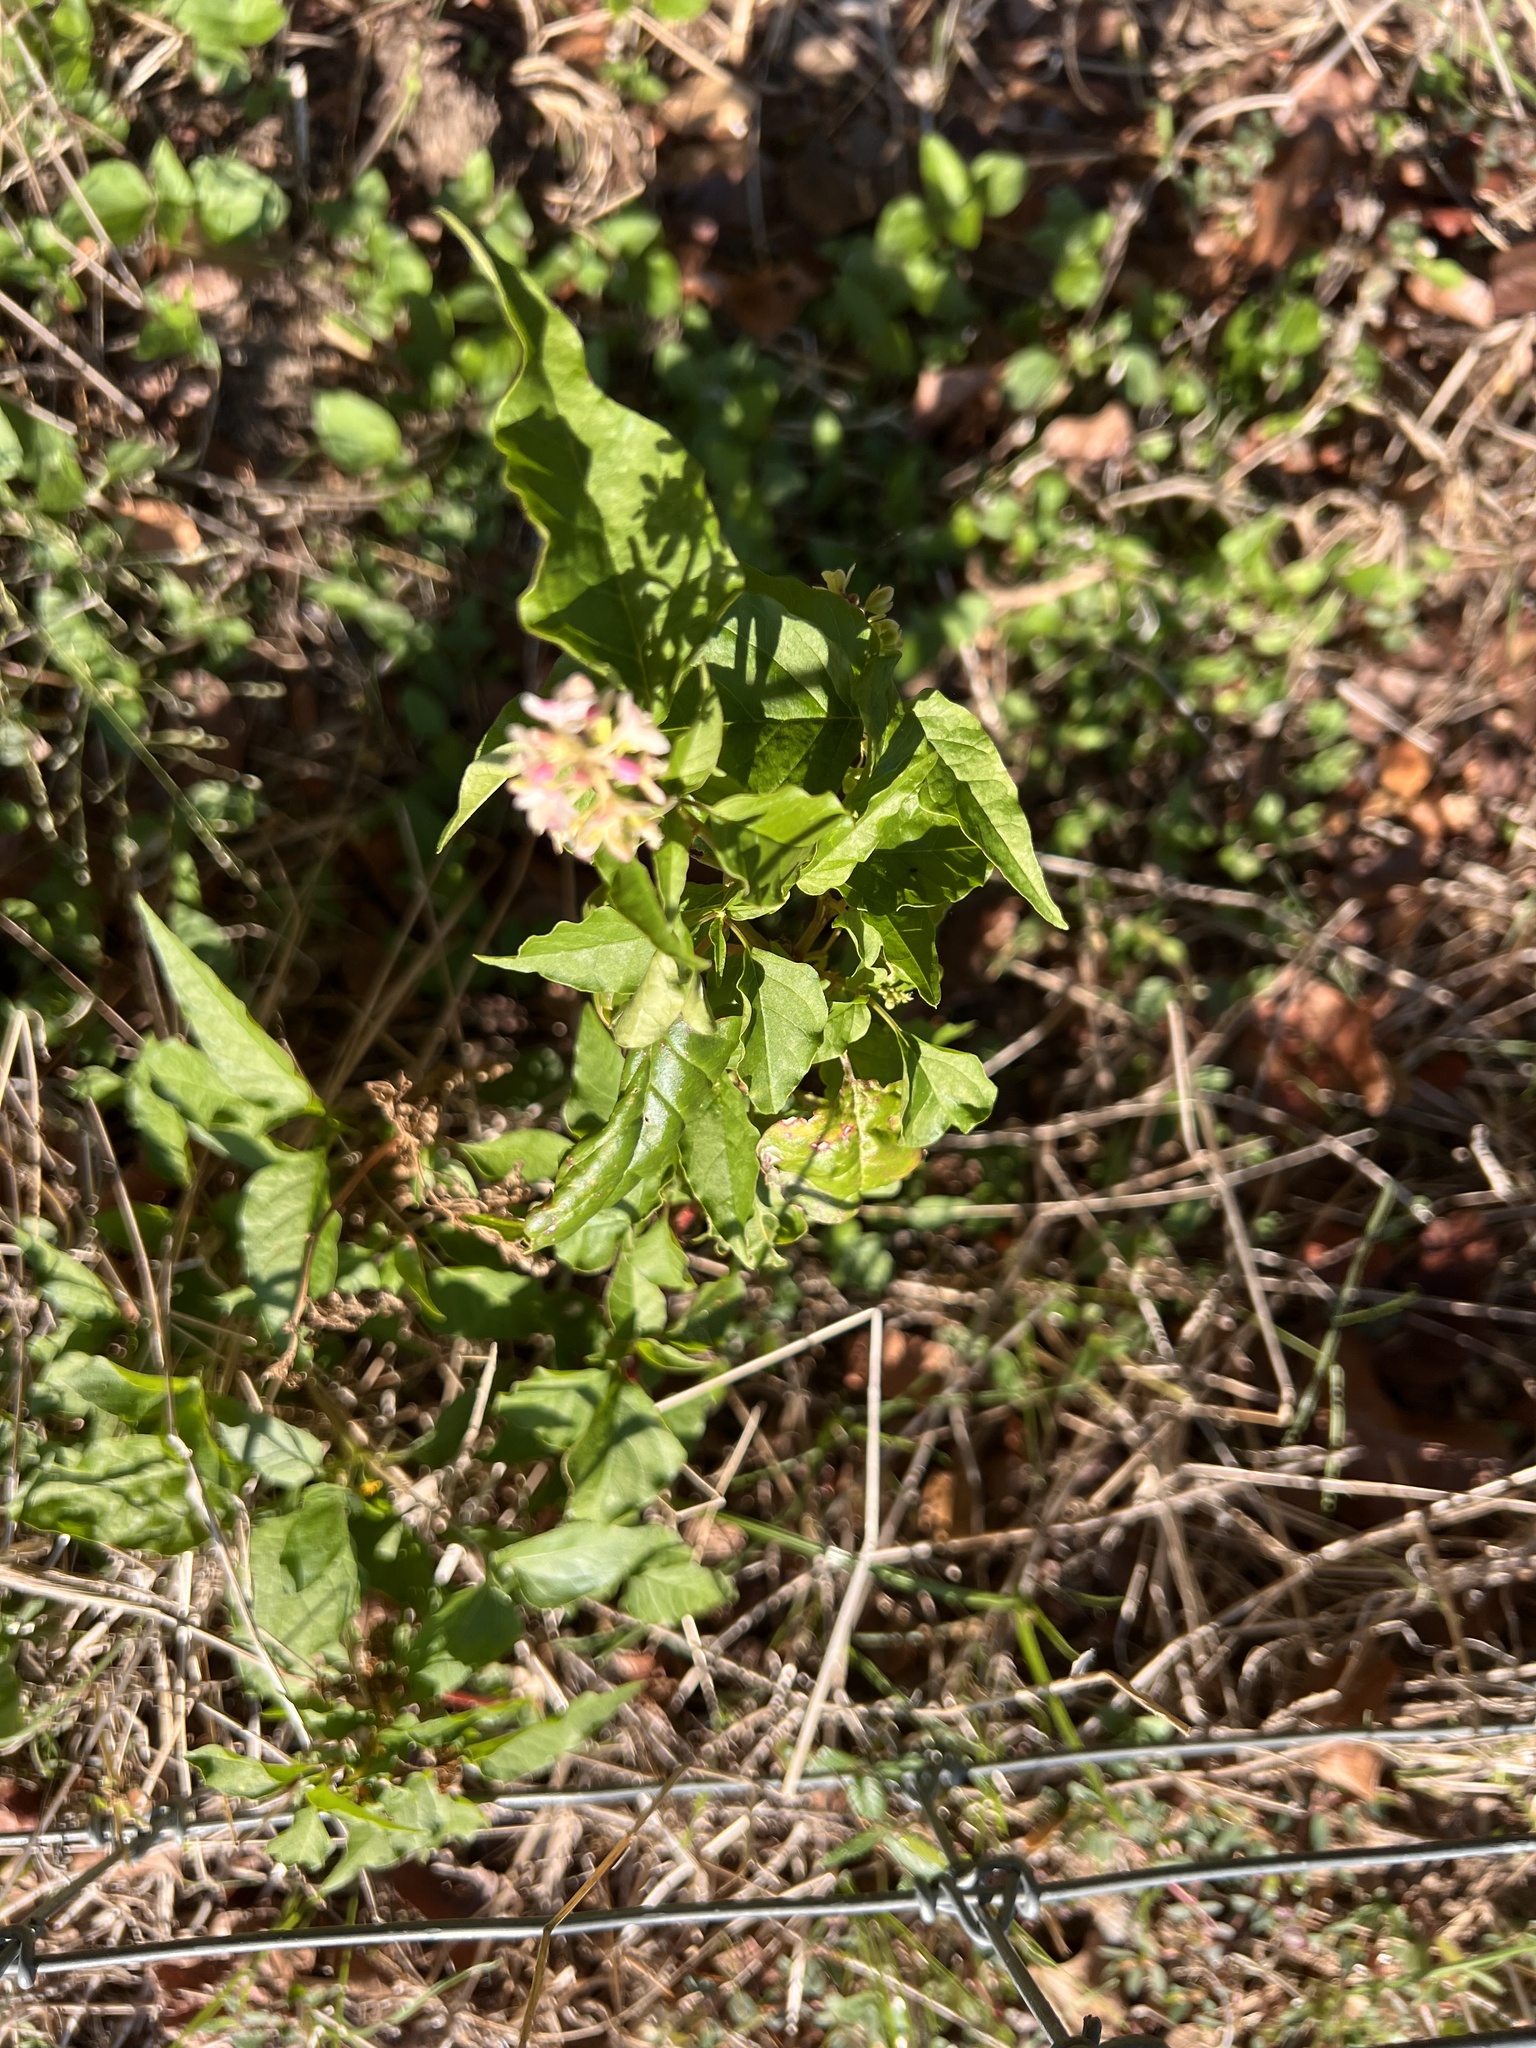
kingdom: Plantae
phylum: Tracheophyta
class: Magnoliopsida
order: Caryophyllales
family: Phytolaccaceae
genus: Rivina
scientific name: Rivina humilis
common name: Rougeplant
